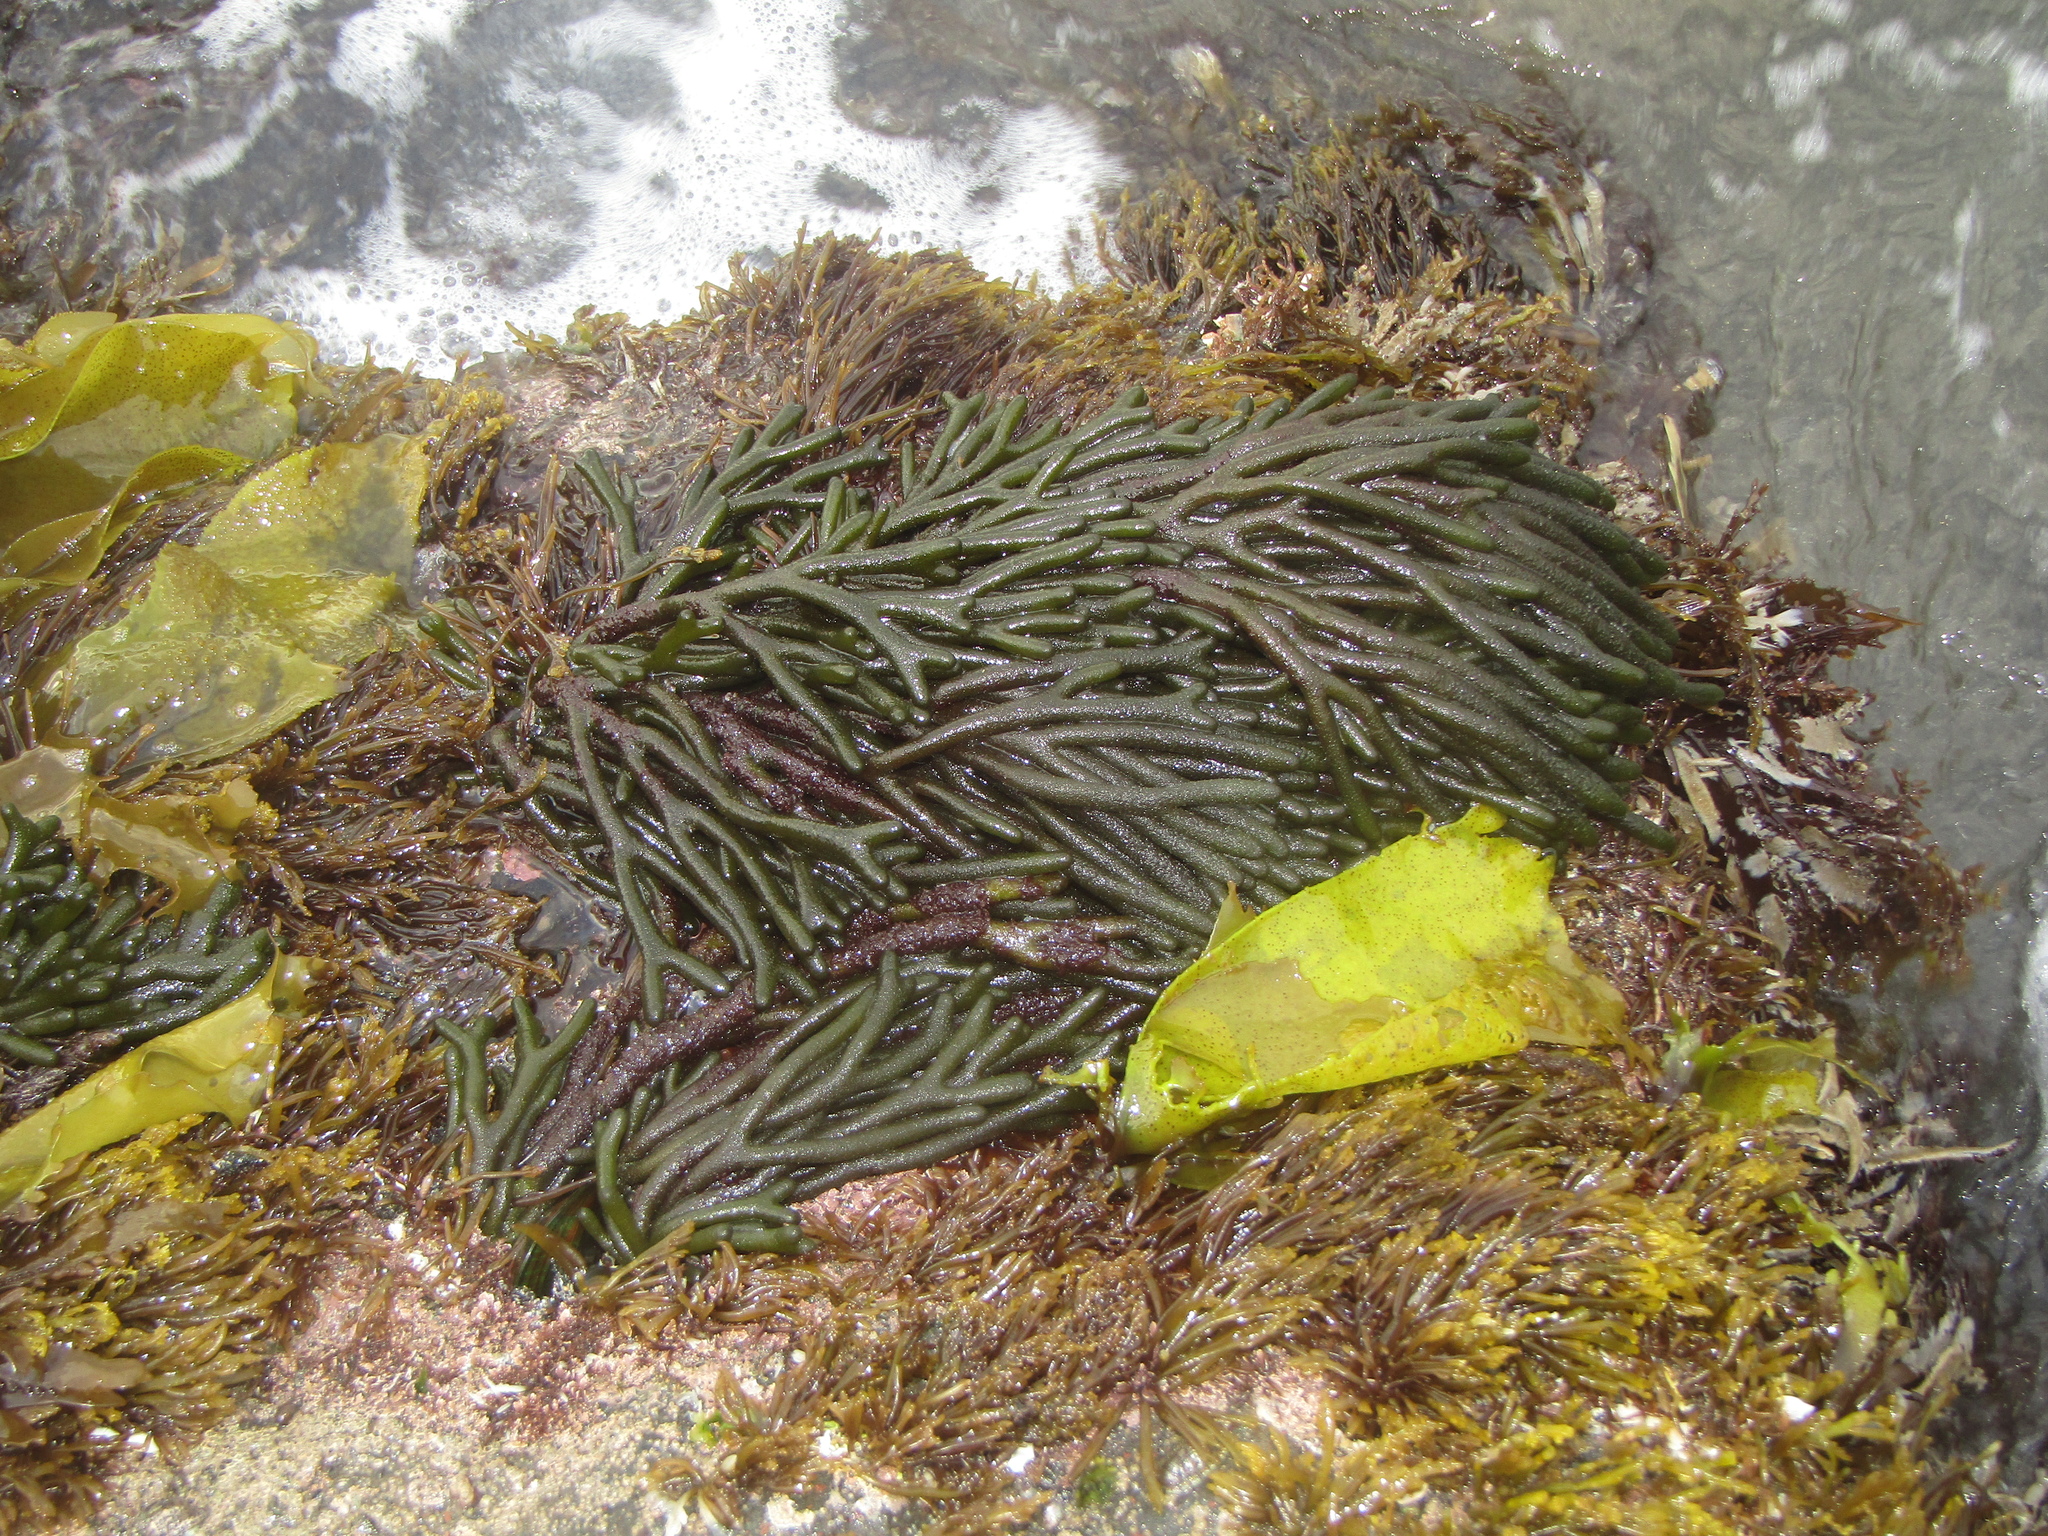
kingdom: Plantae
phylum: Chlorophyta
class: Ulvophyceae
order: Bryopsidales
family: Codiaceae
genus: Codium
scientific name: Codium fragile
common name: Dead man's fingers
